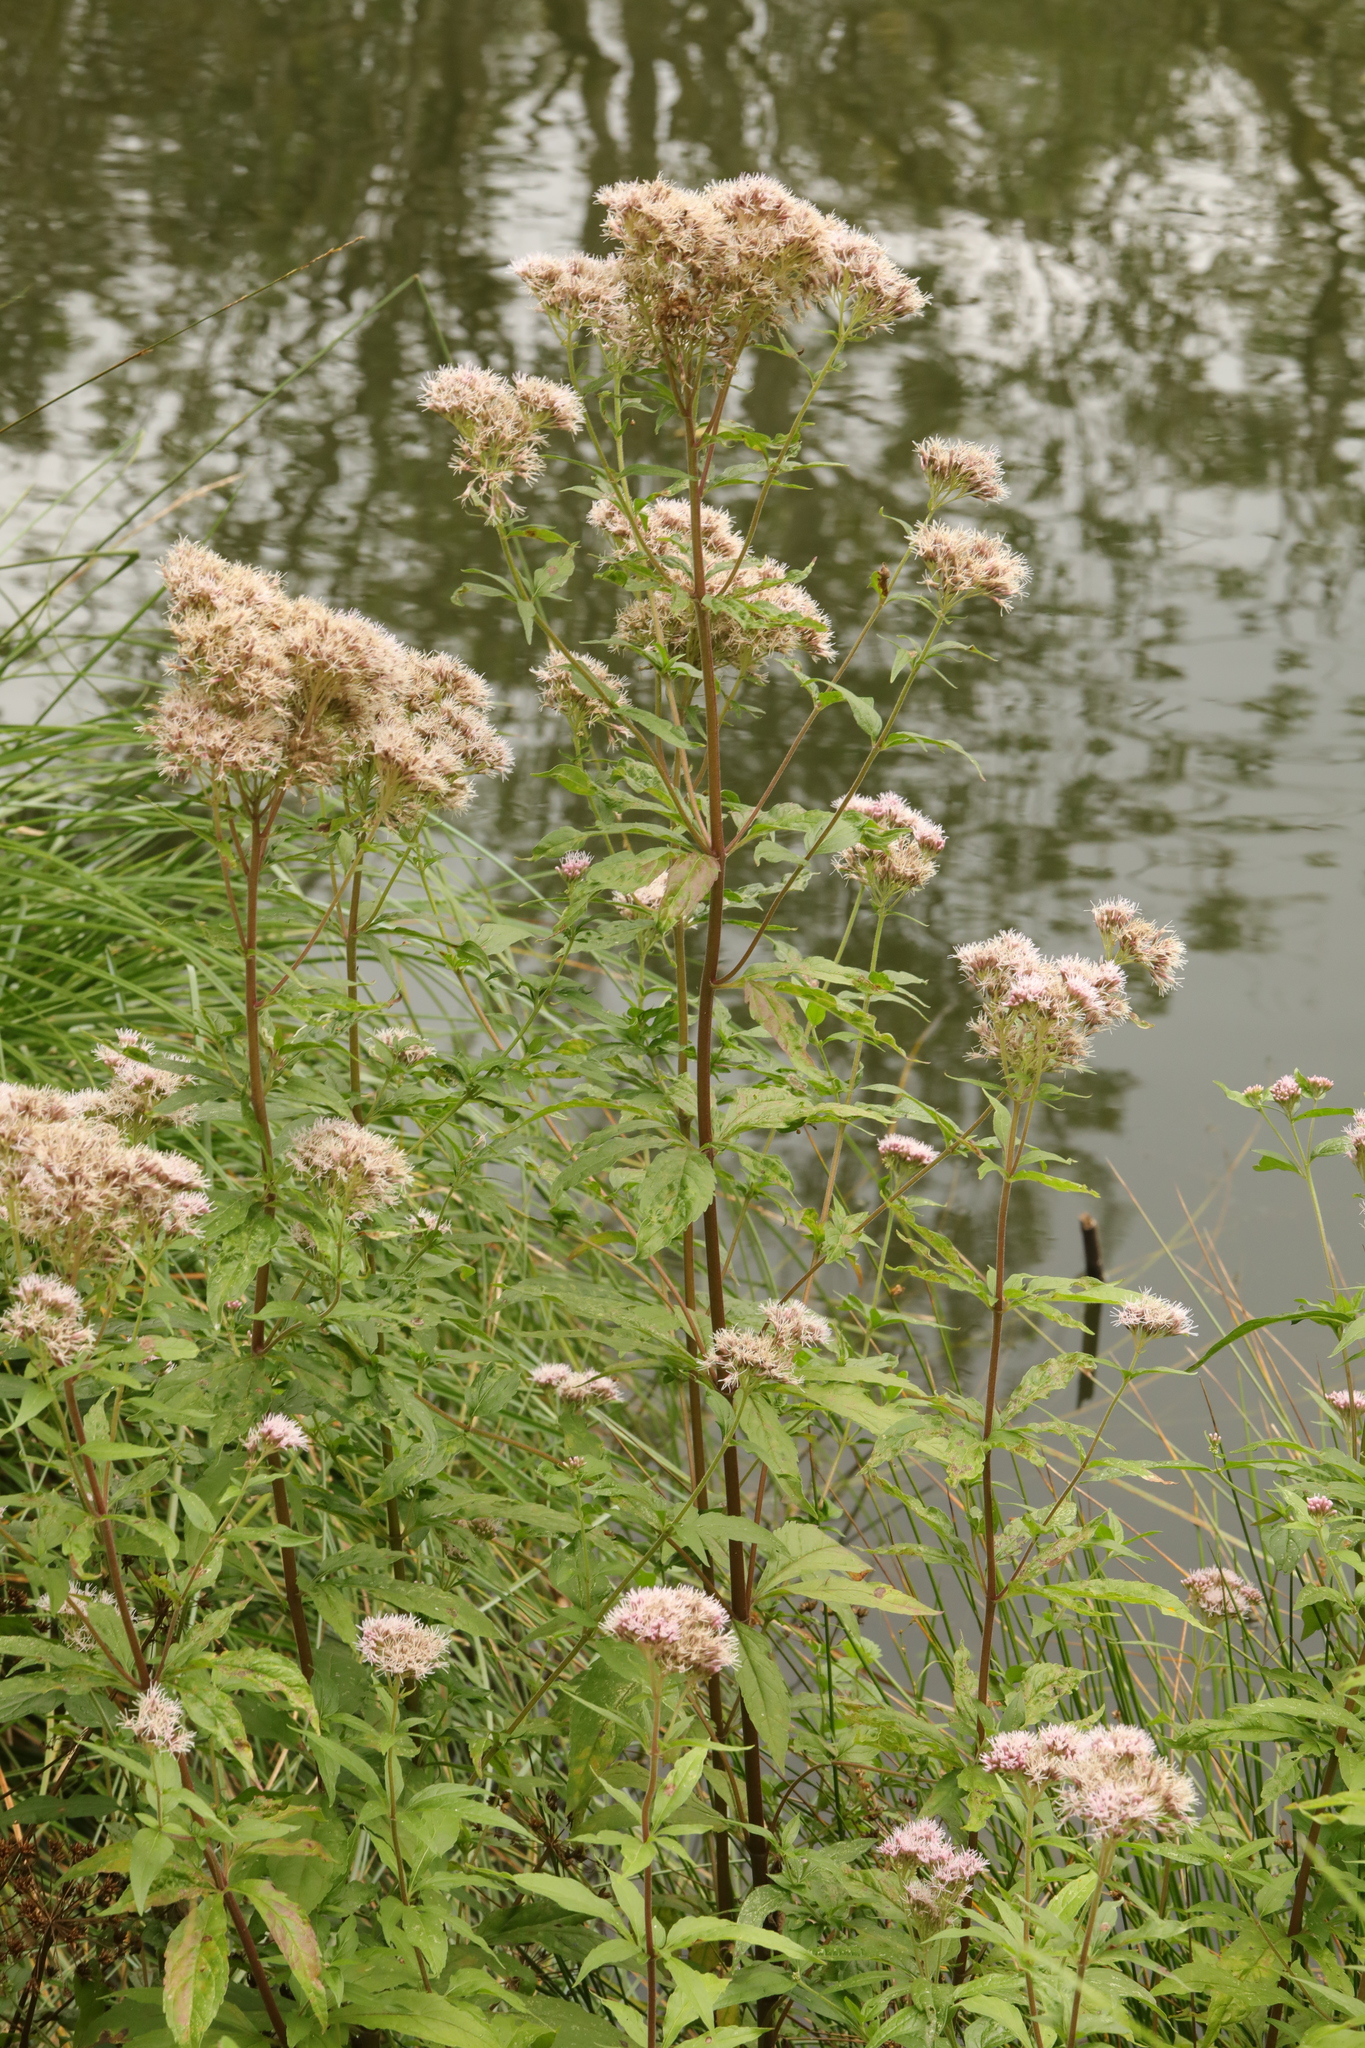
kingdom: Plantae
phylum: Tracheophyta
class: Magnoliopsida
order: Asterales
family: Asteraceae
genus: Eupatorium
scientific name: Eupatorium cannabinum
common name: Hemp-agrimony
